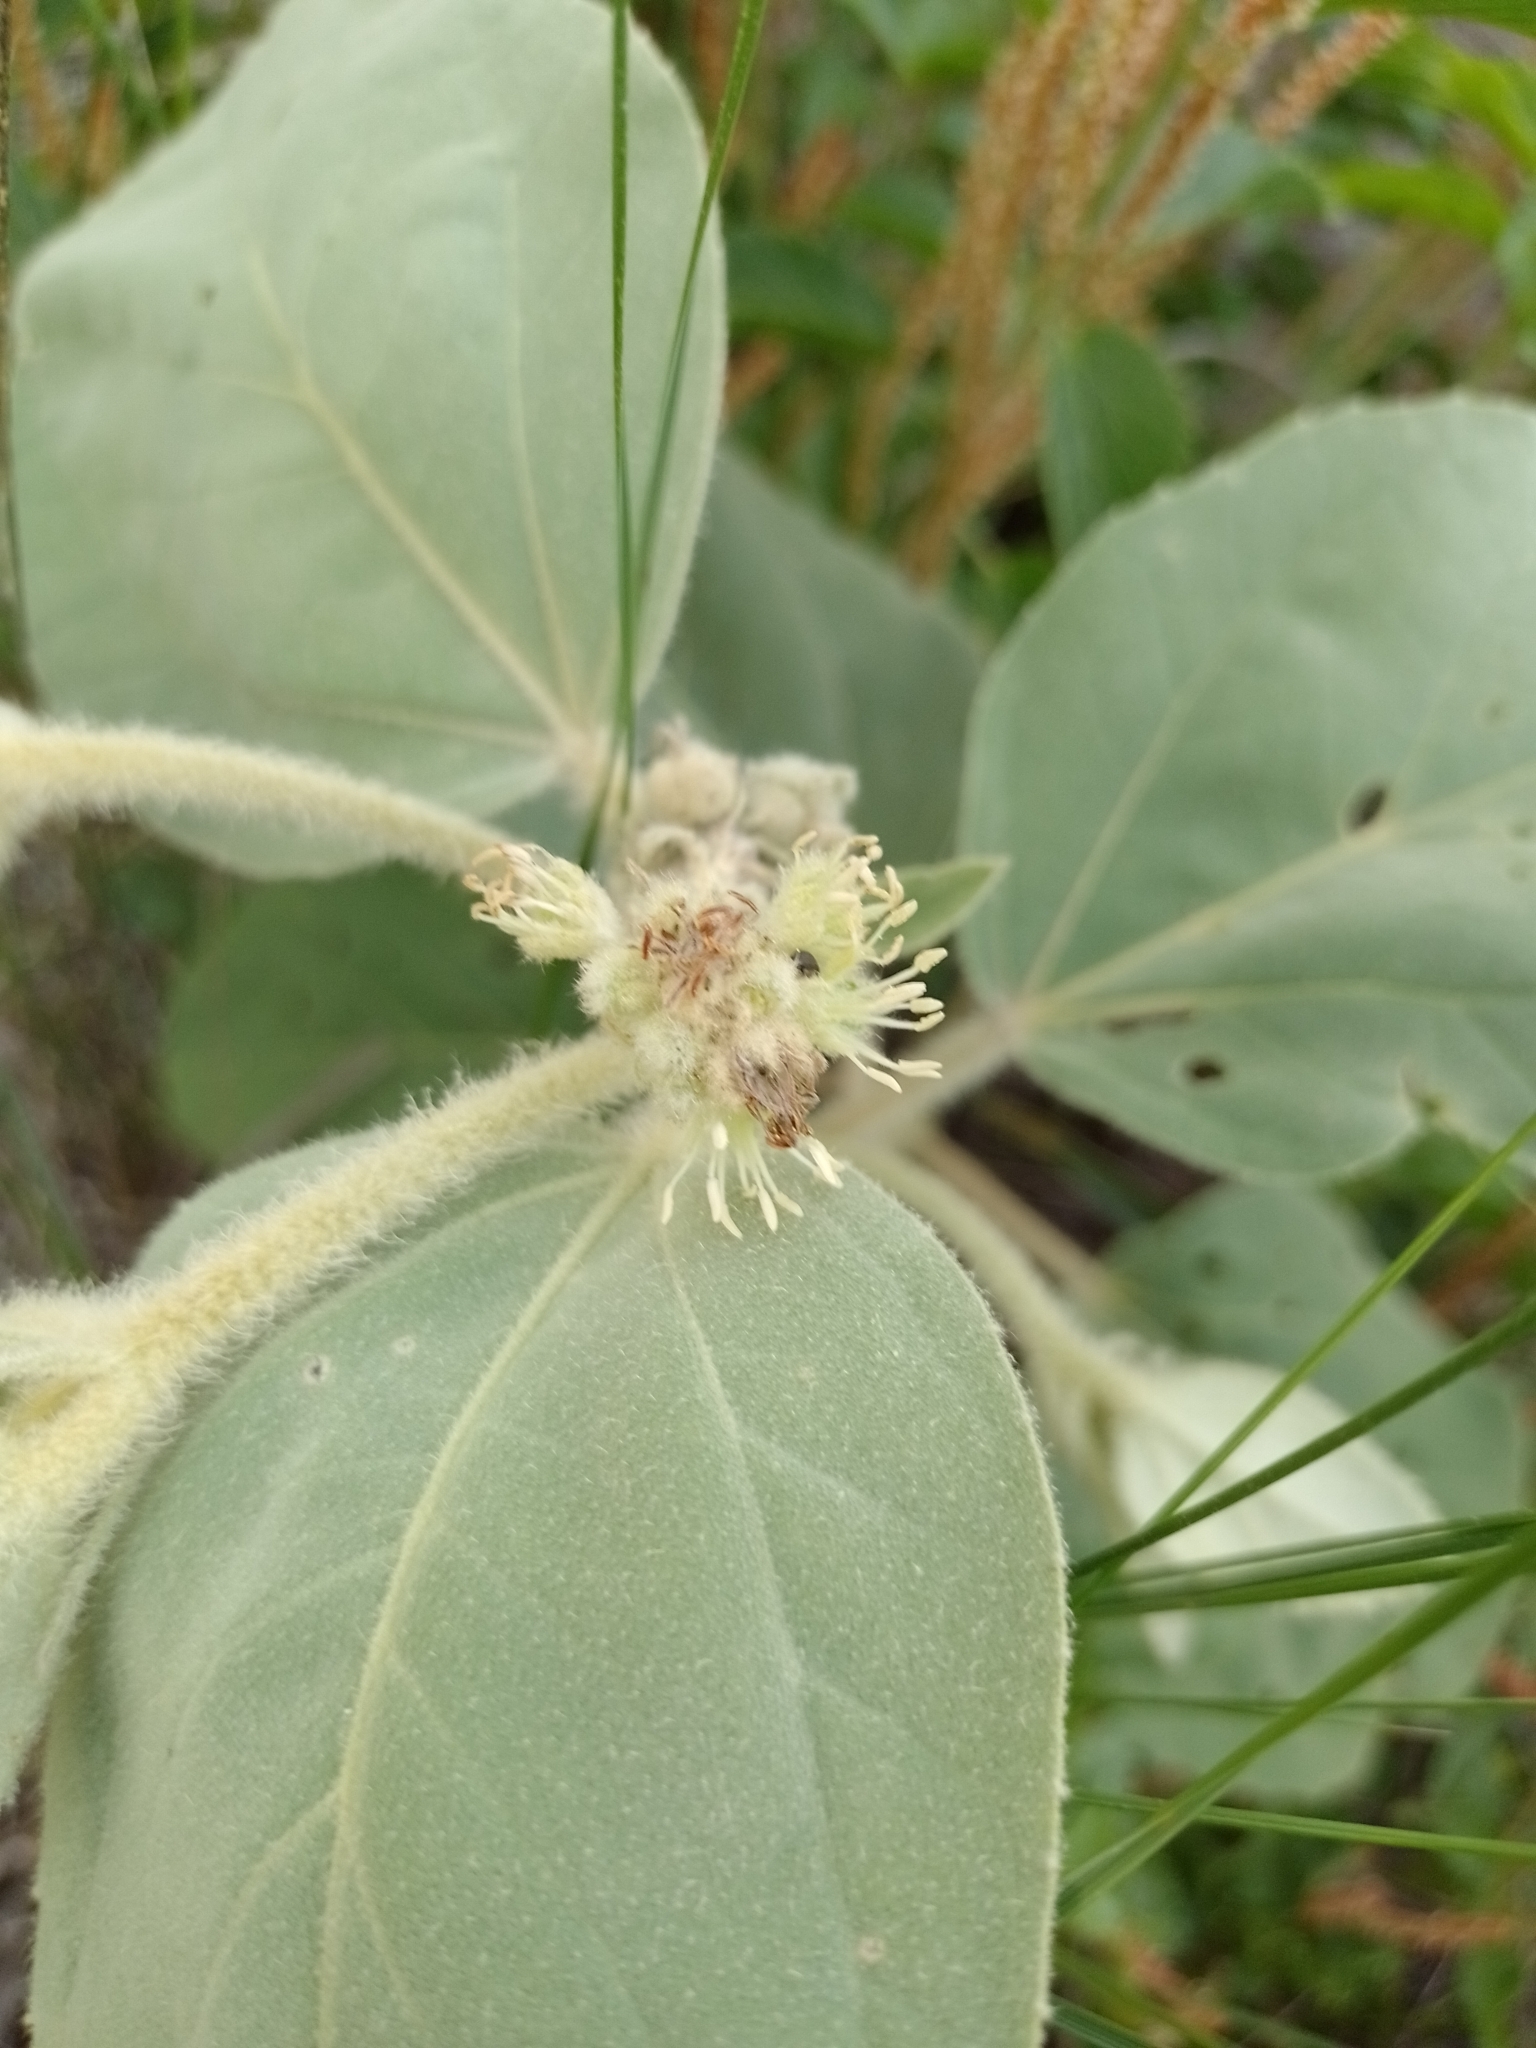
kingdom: Plantae
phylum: Tracheophyta
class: Magnoliopsida
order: Malpighiales
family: Euphorbiaceae
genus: Croton
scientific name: Croton subpannosus
